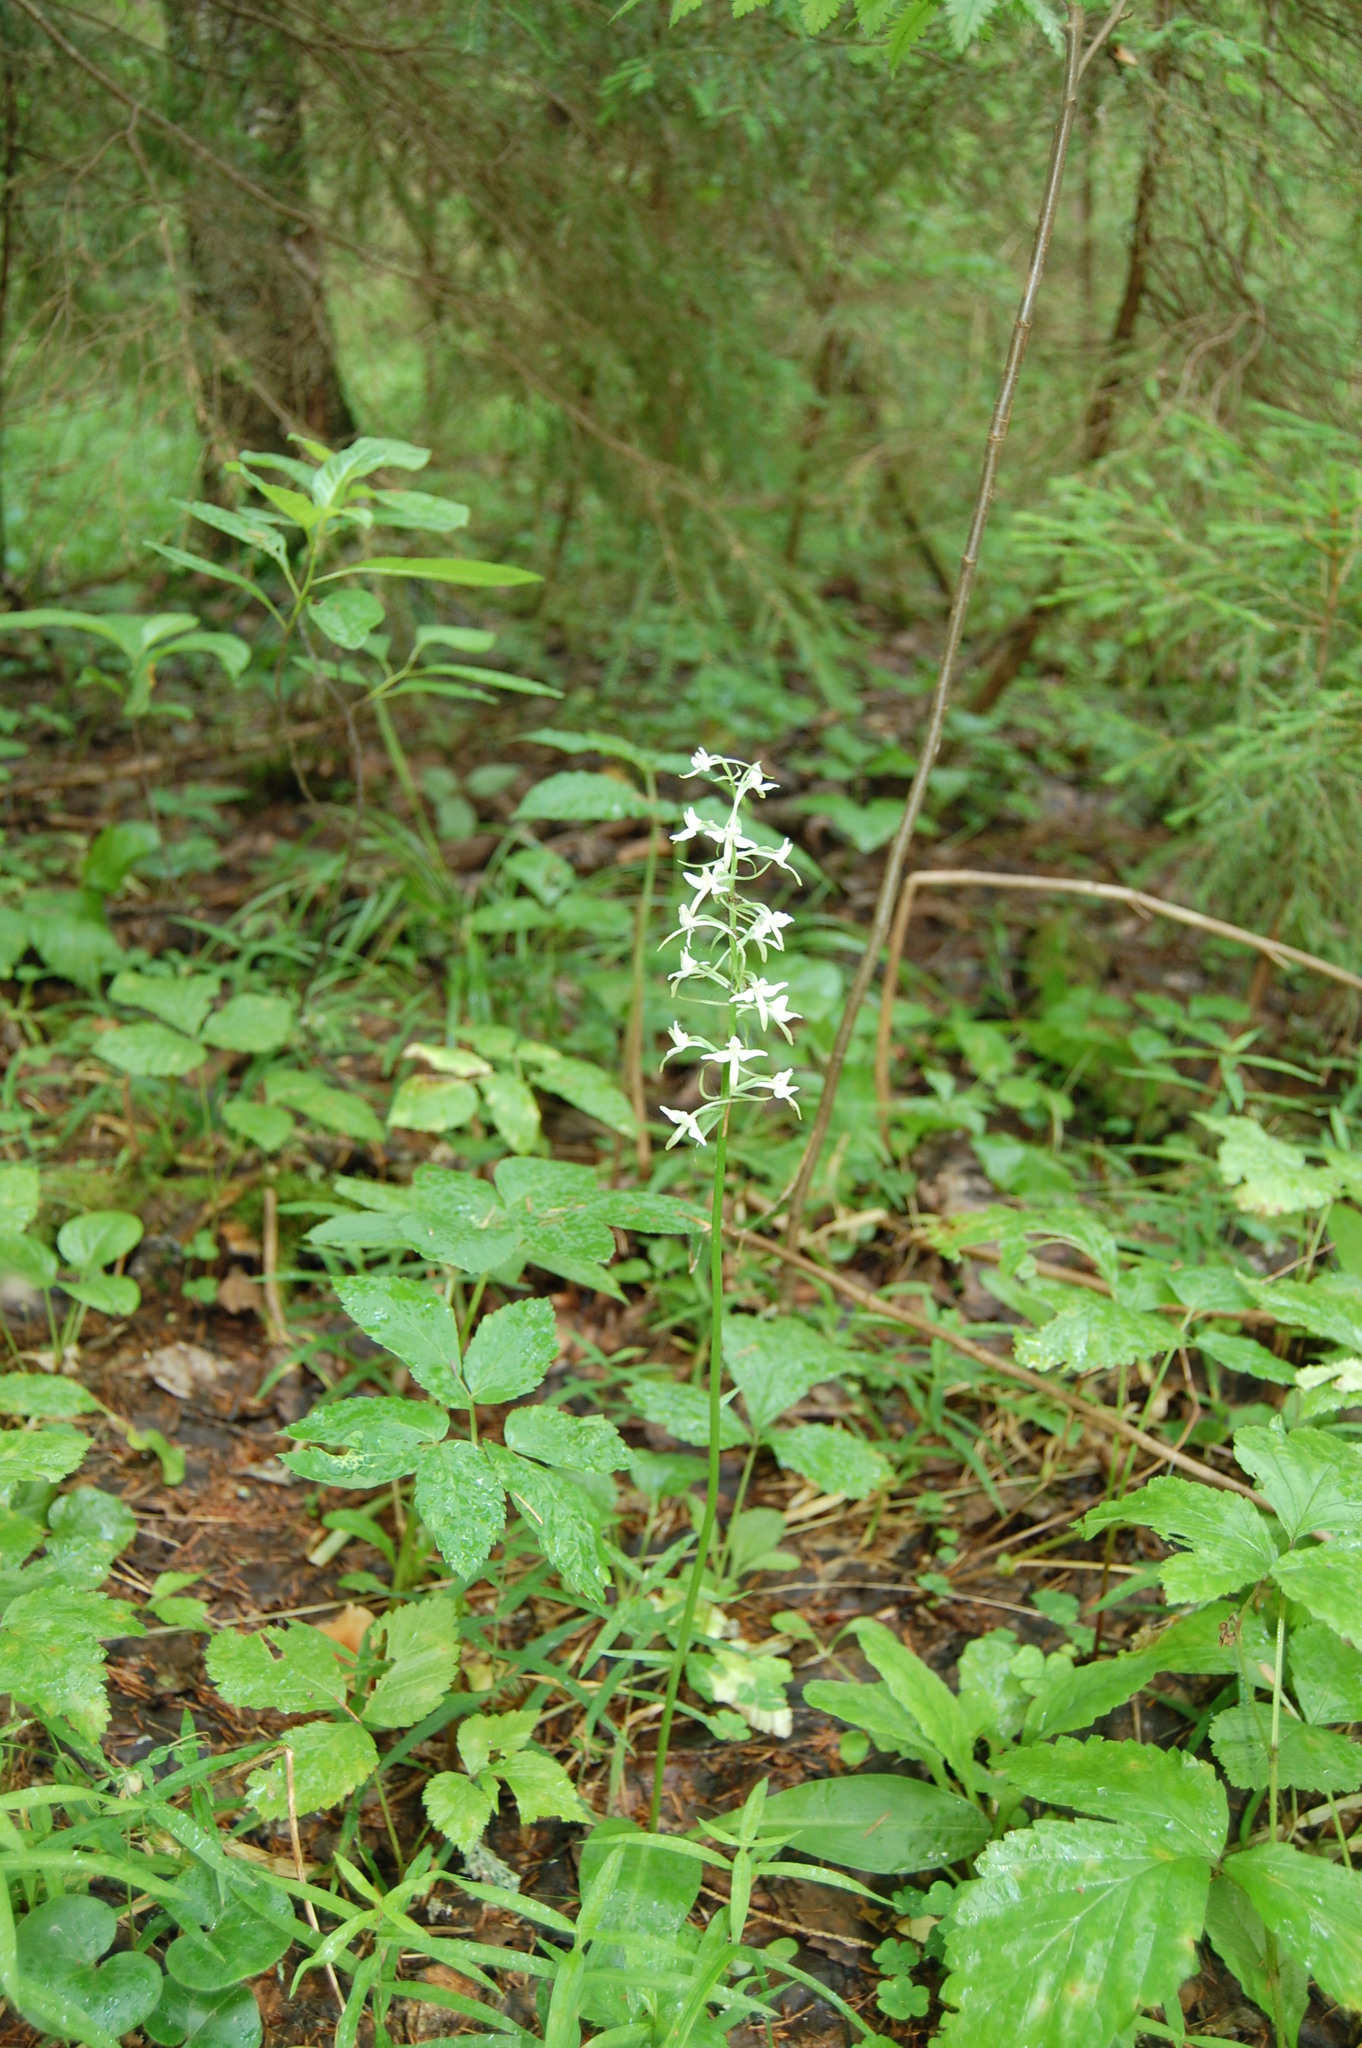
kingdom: Plantae
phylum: Tracheophyta
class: Liliopsida
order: Asparagales
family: Orchidaceae
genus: Platanthera
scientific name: Platanthera bifolia
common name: Lesser butterfly-orchid
